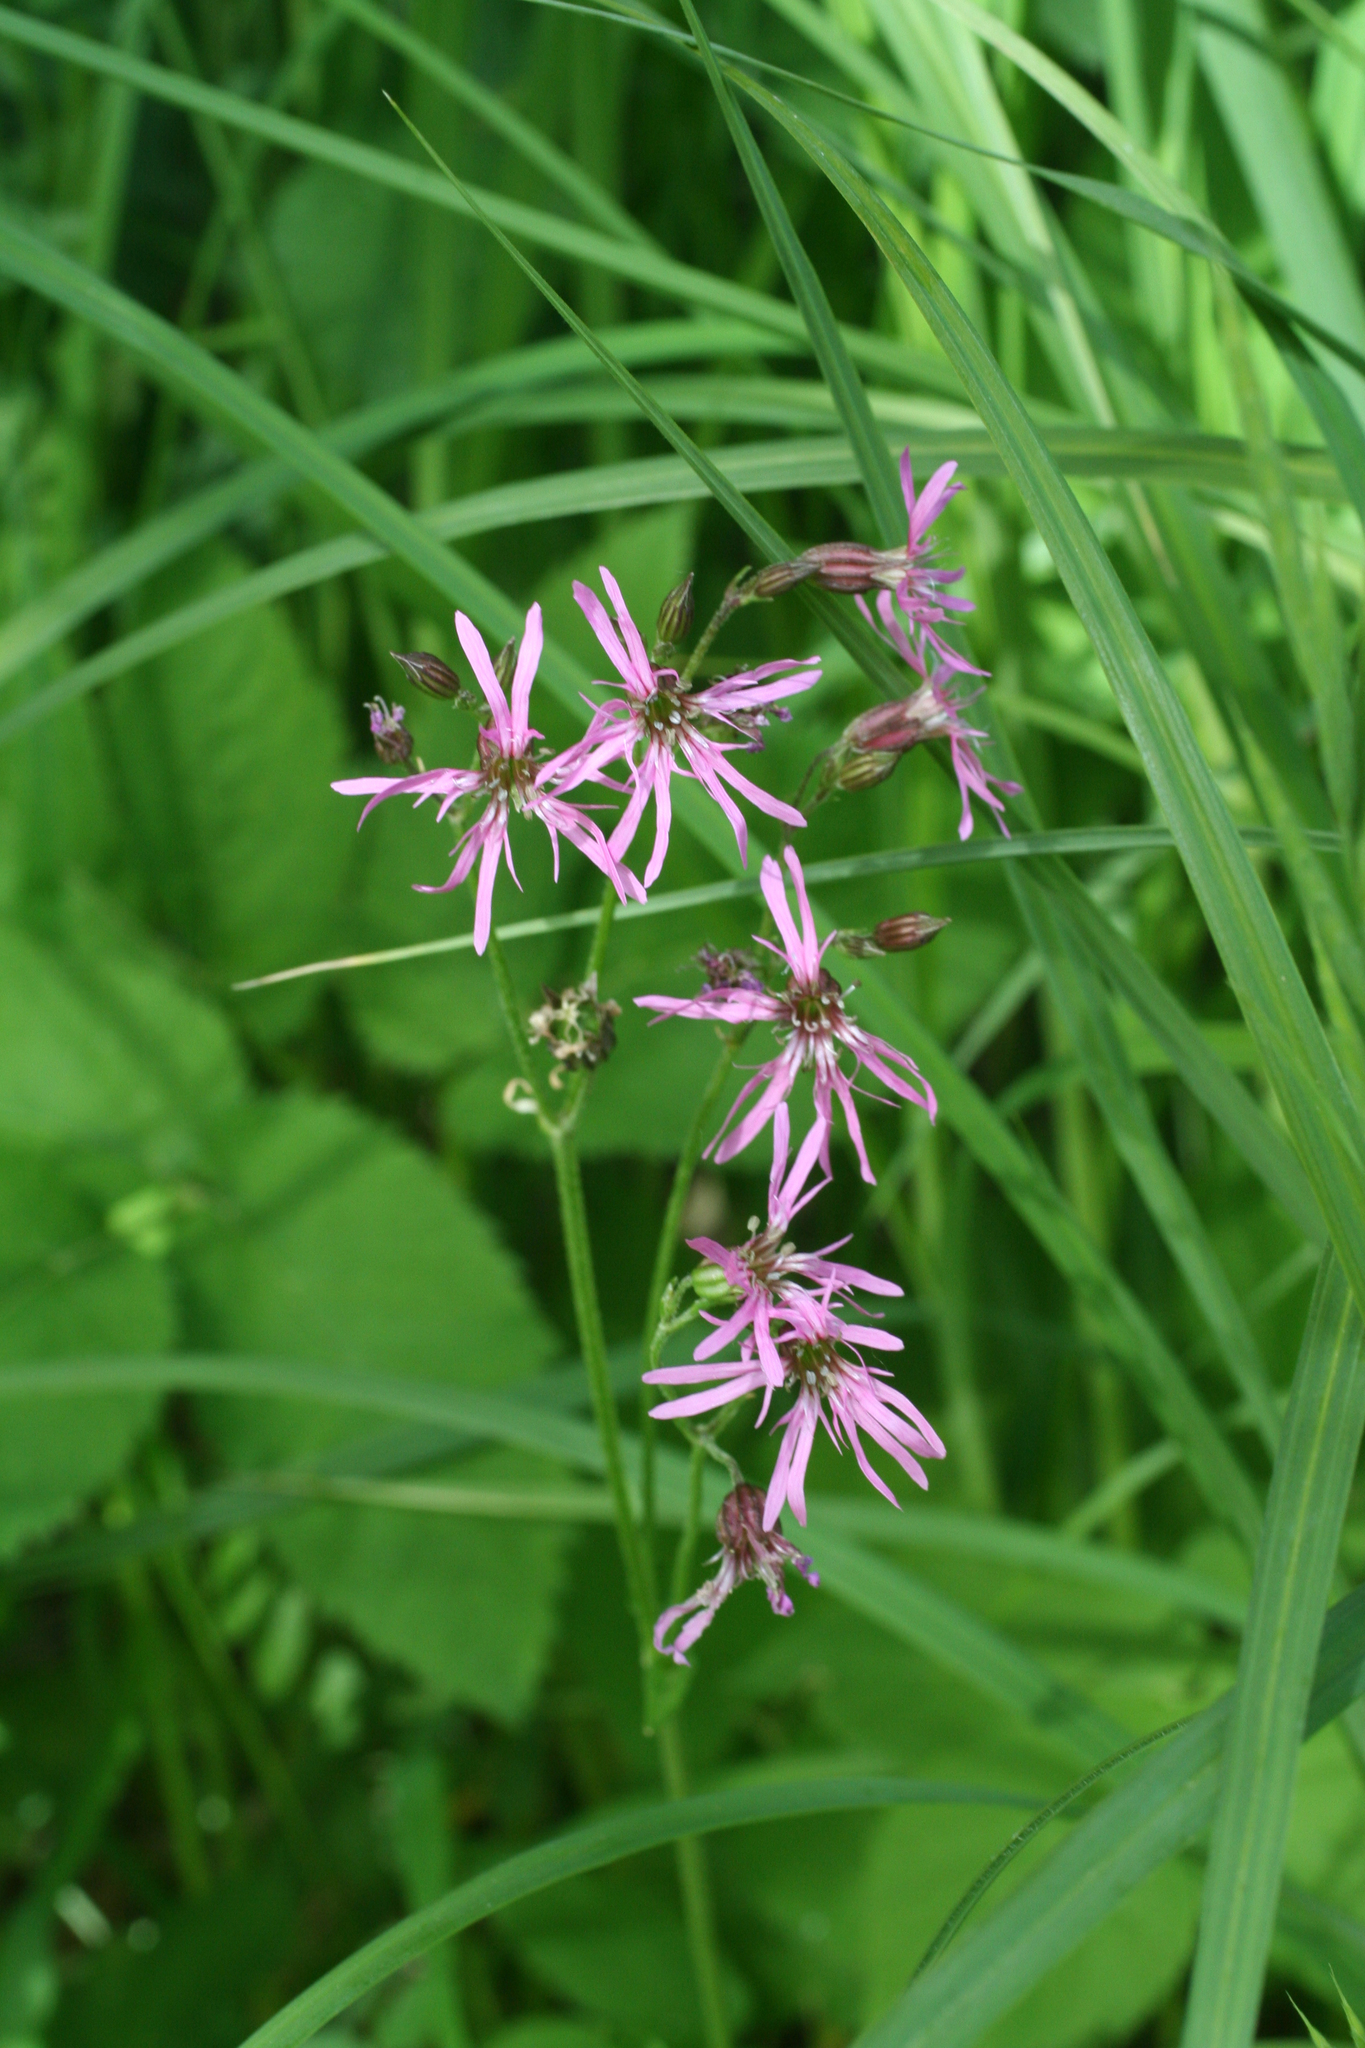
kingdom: Plantae
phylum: Tracheophyta
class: Magnoliopsida
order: Caryophyllales
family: Caryophyllaceae
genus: Silene
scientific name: Silene flos-cuculi
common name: Ragged-robin
